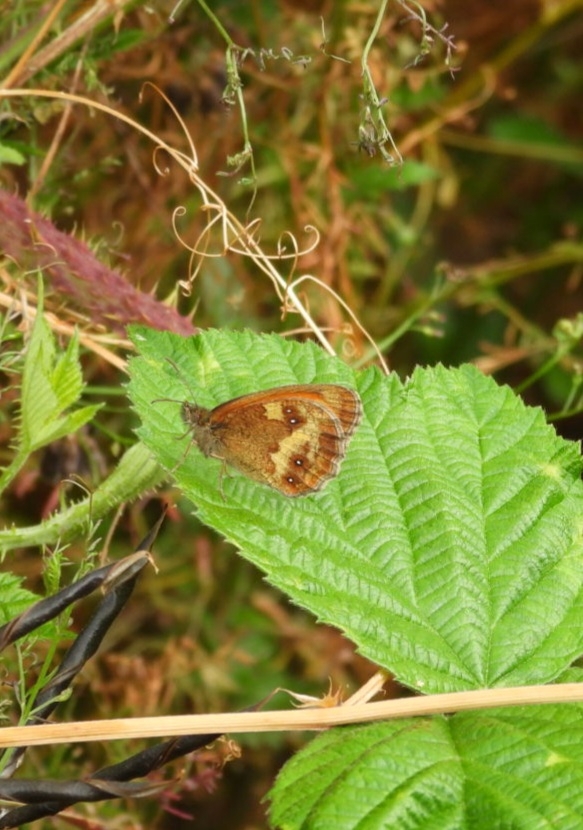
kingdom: Animalia
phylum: Arthropoda
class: Insecta
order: Lepidoptera
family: Nymphalidae
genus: Pyronia
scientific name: Pyronia tithonus
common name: Gatekeeper
